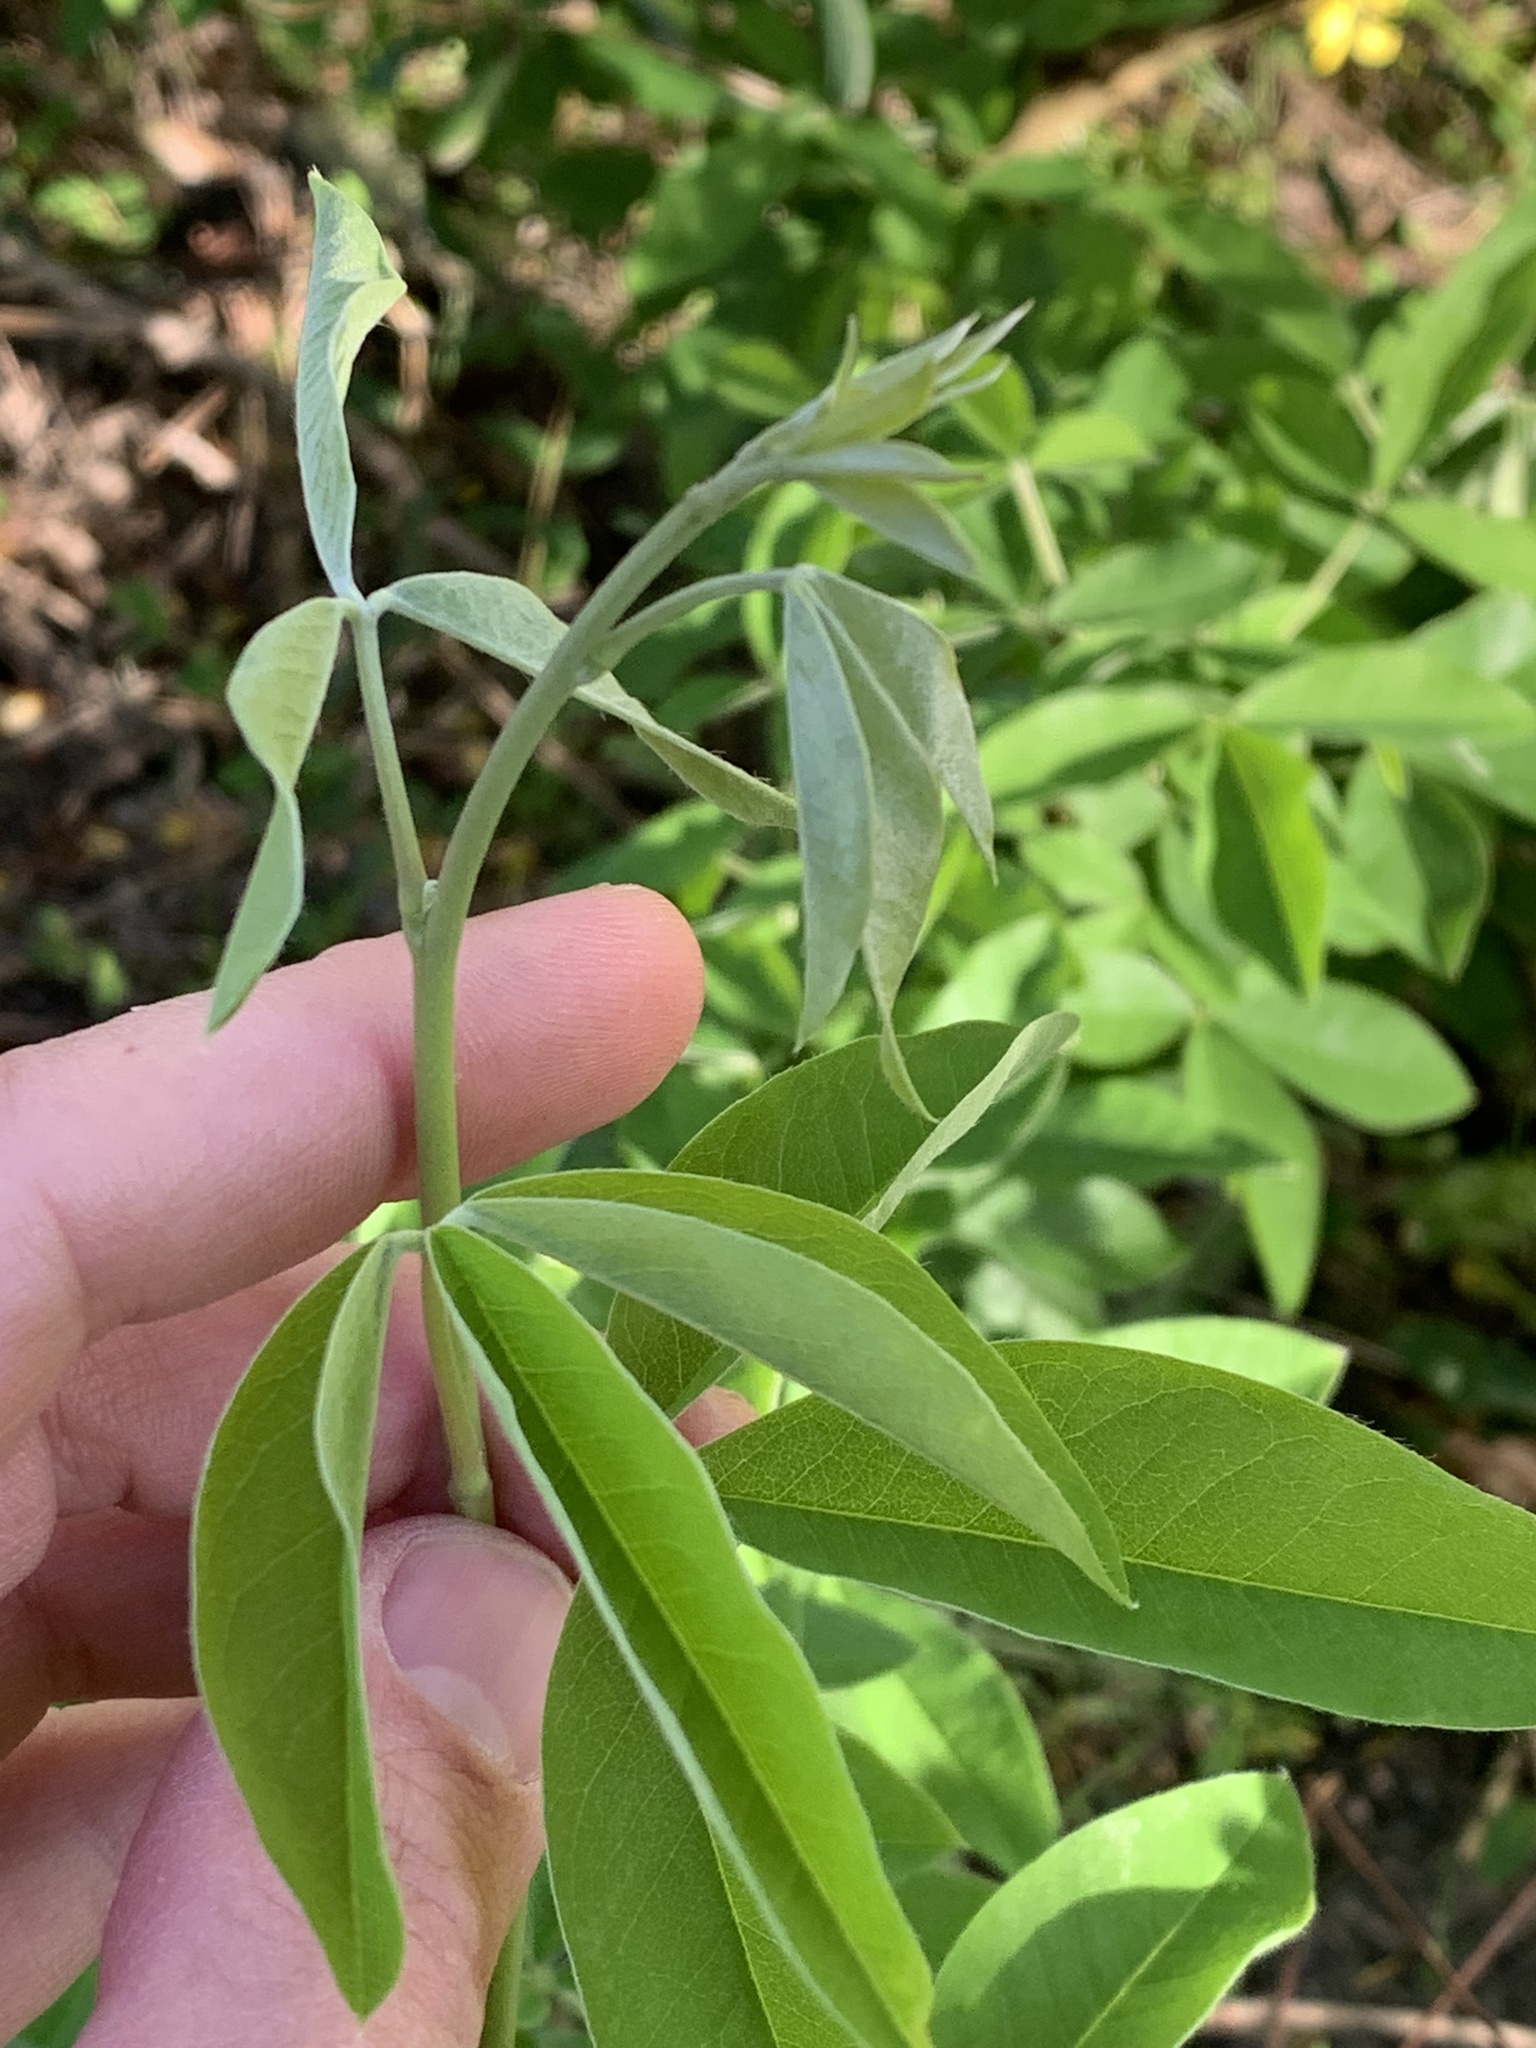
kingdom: Plantae
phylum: Tracheophyta
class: Magnoliopsida
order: Fabales
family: Fabaceae
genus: Laburnum
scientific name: Laburnum anagyroides
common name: Laburnum
